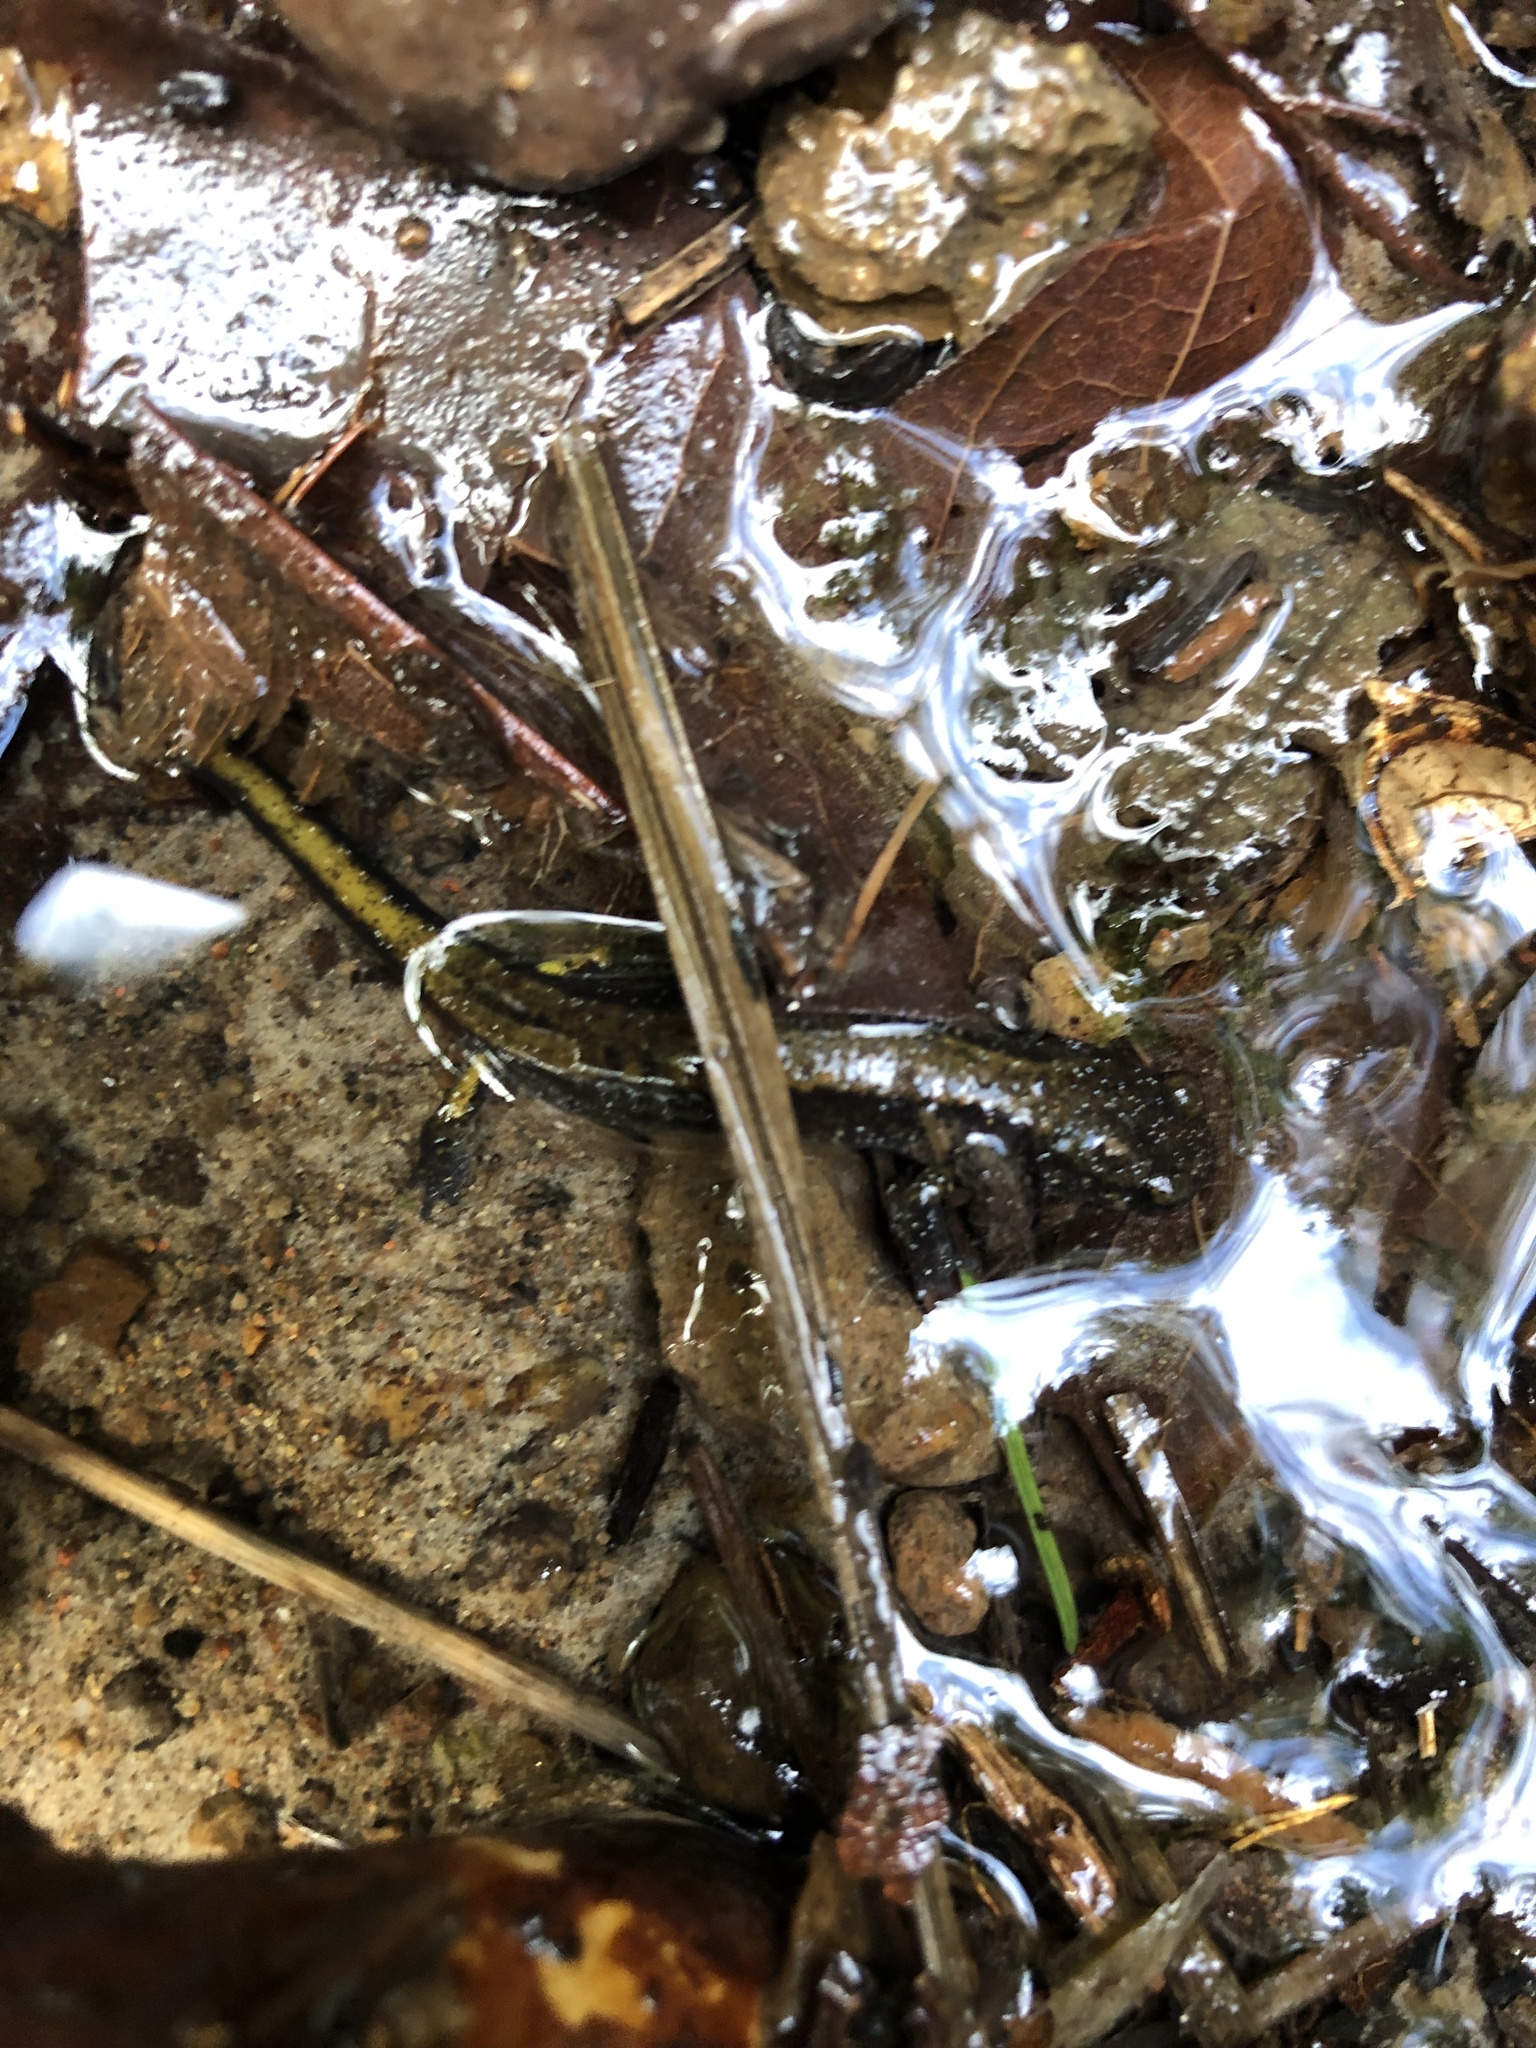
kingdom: Animalia
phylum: Chordata
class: Amphibia
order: Caudata
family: Plethodontidae
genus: Plethodon
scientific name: Plethodon dunni
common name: Dunn's salamander
